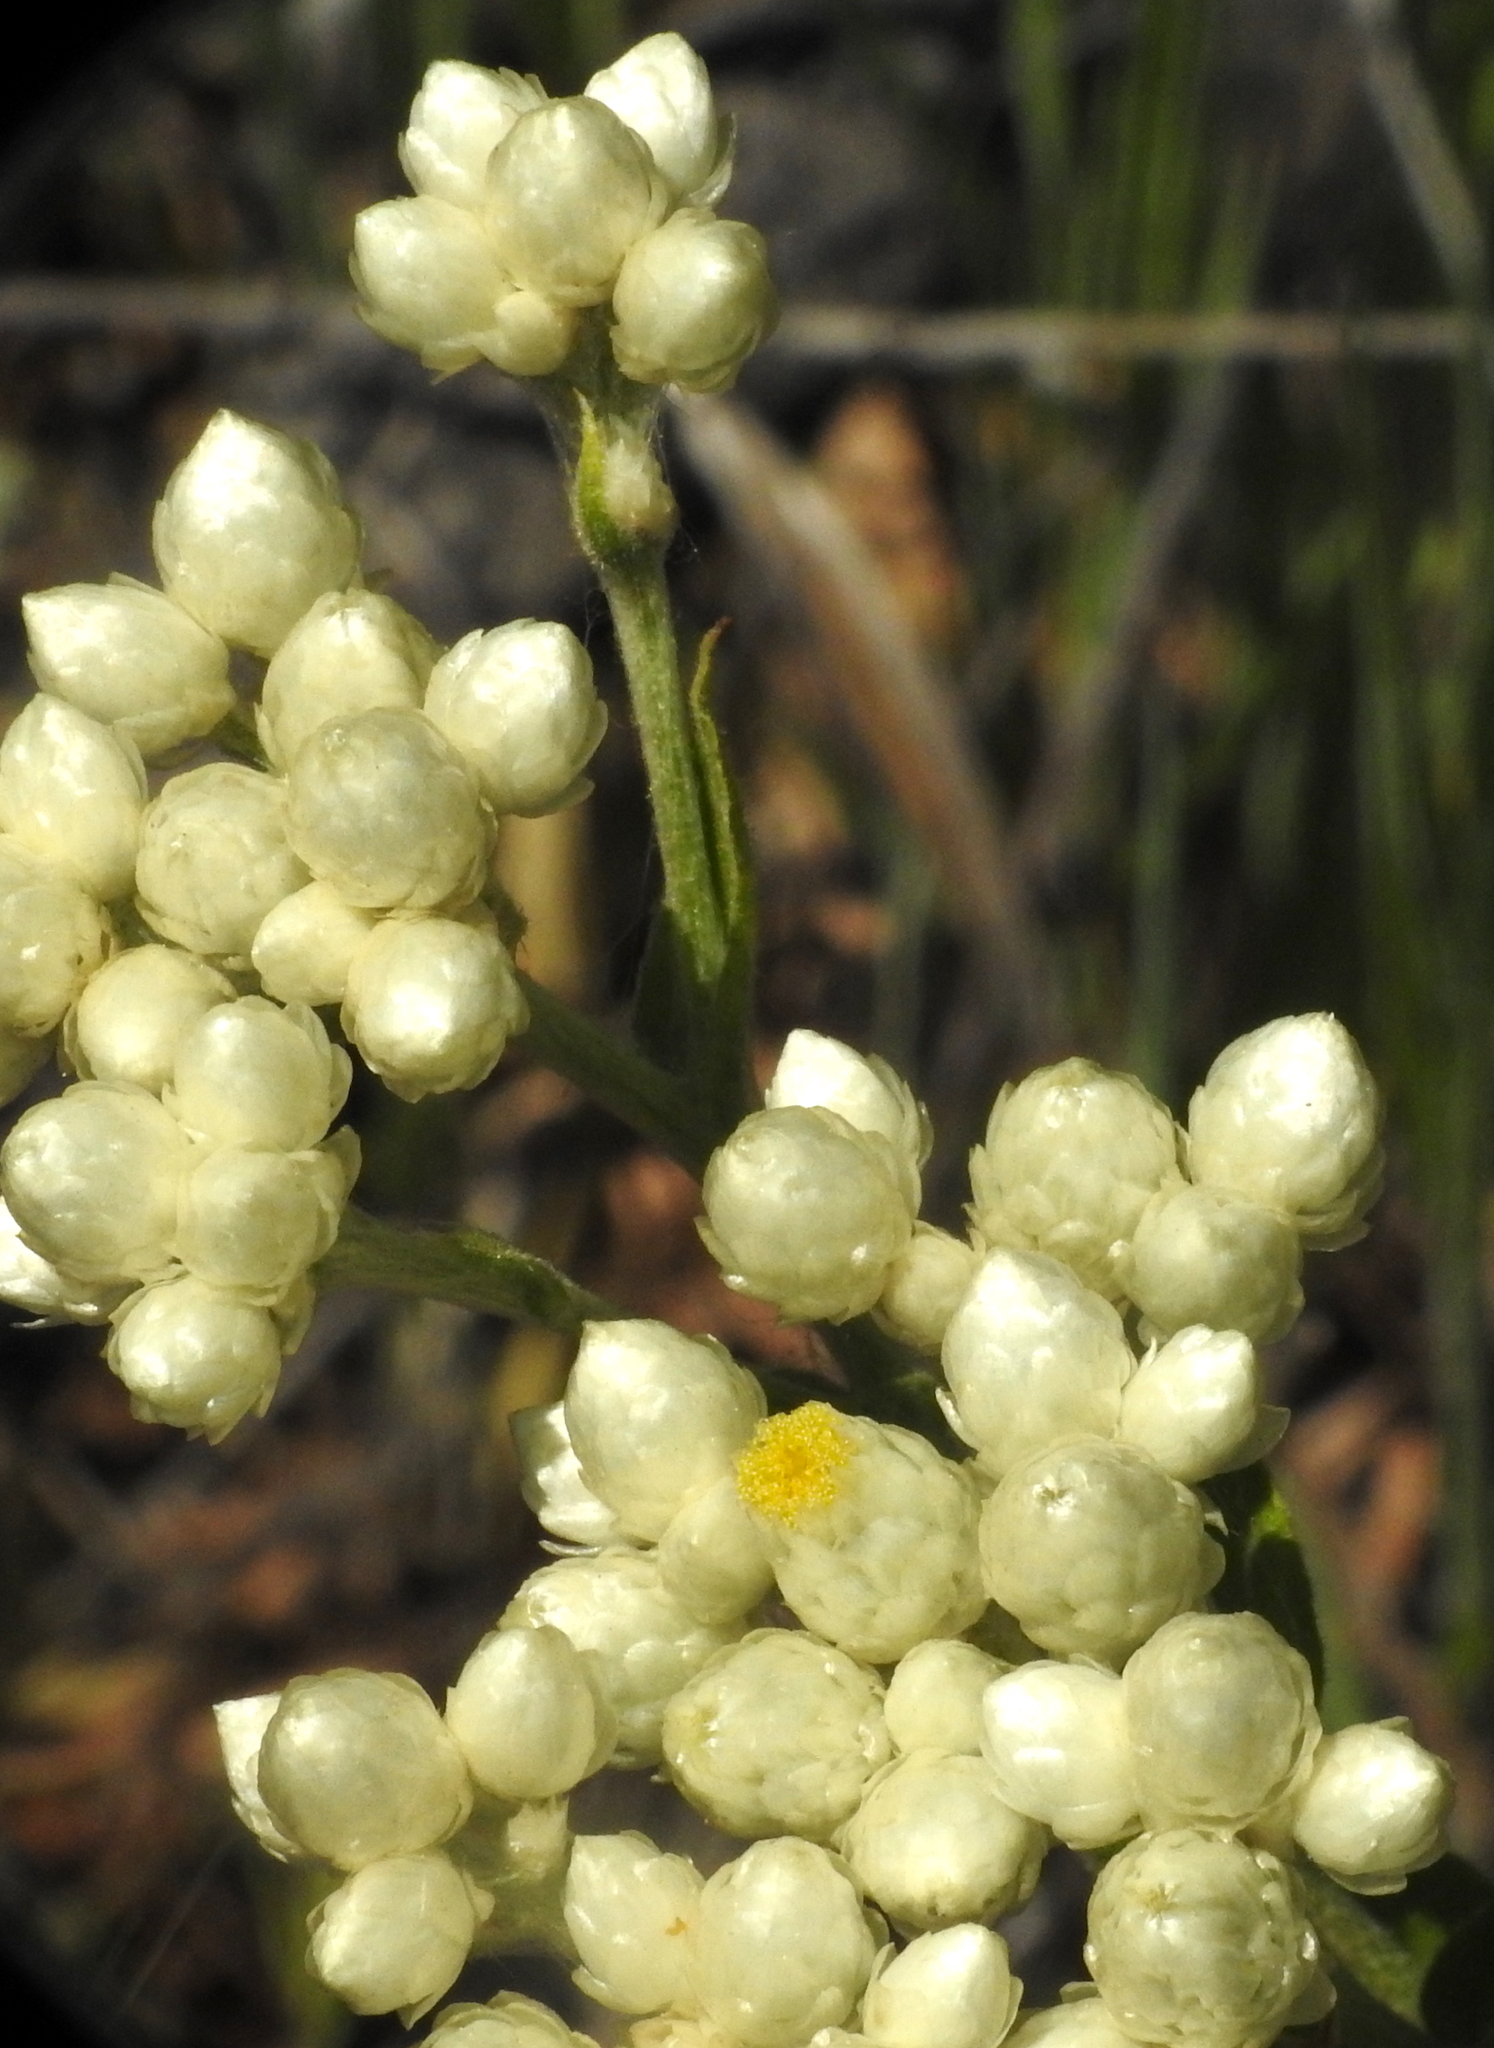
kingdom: Plantae
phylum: Tracheophyta
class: Magnoliopsida
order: Asterales
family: Asteraceae
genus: Pseudognaphalium
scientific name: Pseudognaphalium californicum
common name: California rabbit-tobacco
